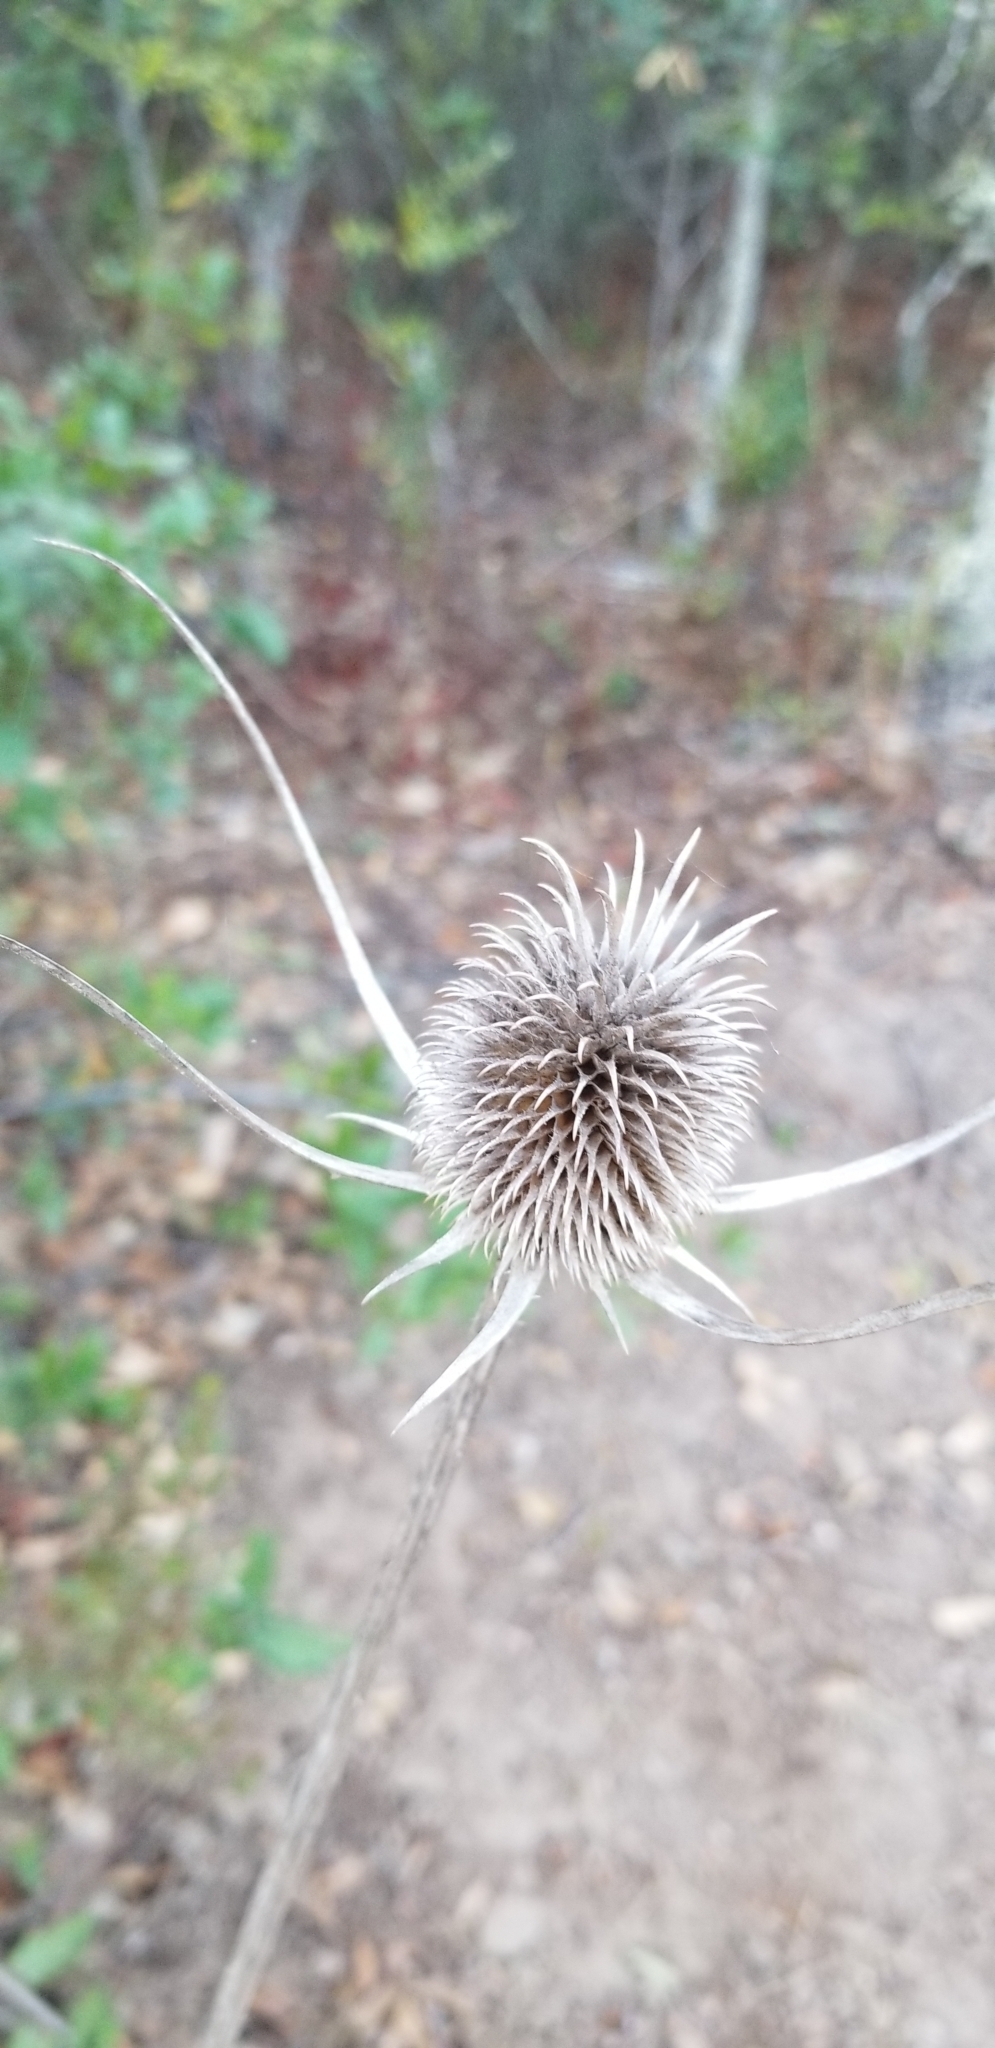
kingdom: Plantae
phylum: Tracheophyta
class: Magnoliopsida
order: Dipsacales
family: Caprifoliaceae
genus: Dipsacus
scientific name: Dipsacus sativus
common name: Fuller's teasel
